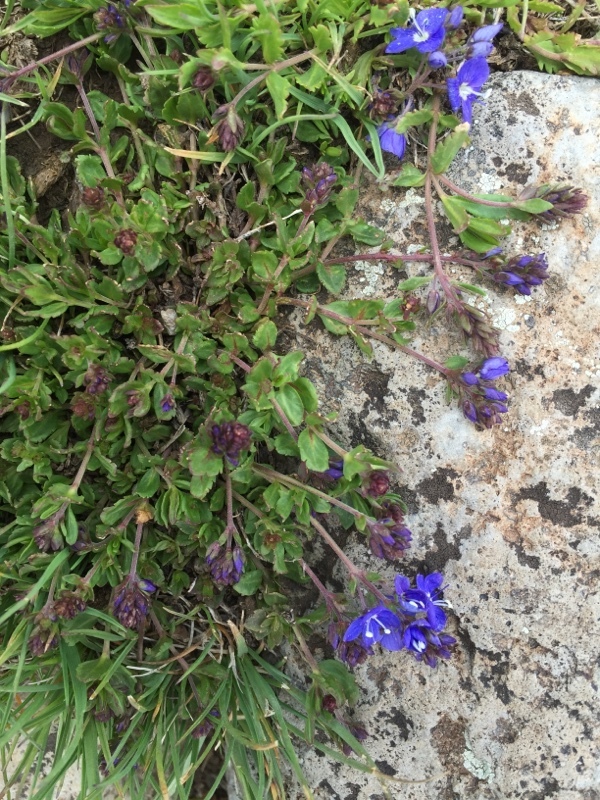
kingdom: Plantae
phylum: Tracheophyta
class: Magnoliopsida
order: Lamiales
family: Plantaginaceae
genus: Veronica
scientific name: Veronica microcarpa
